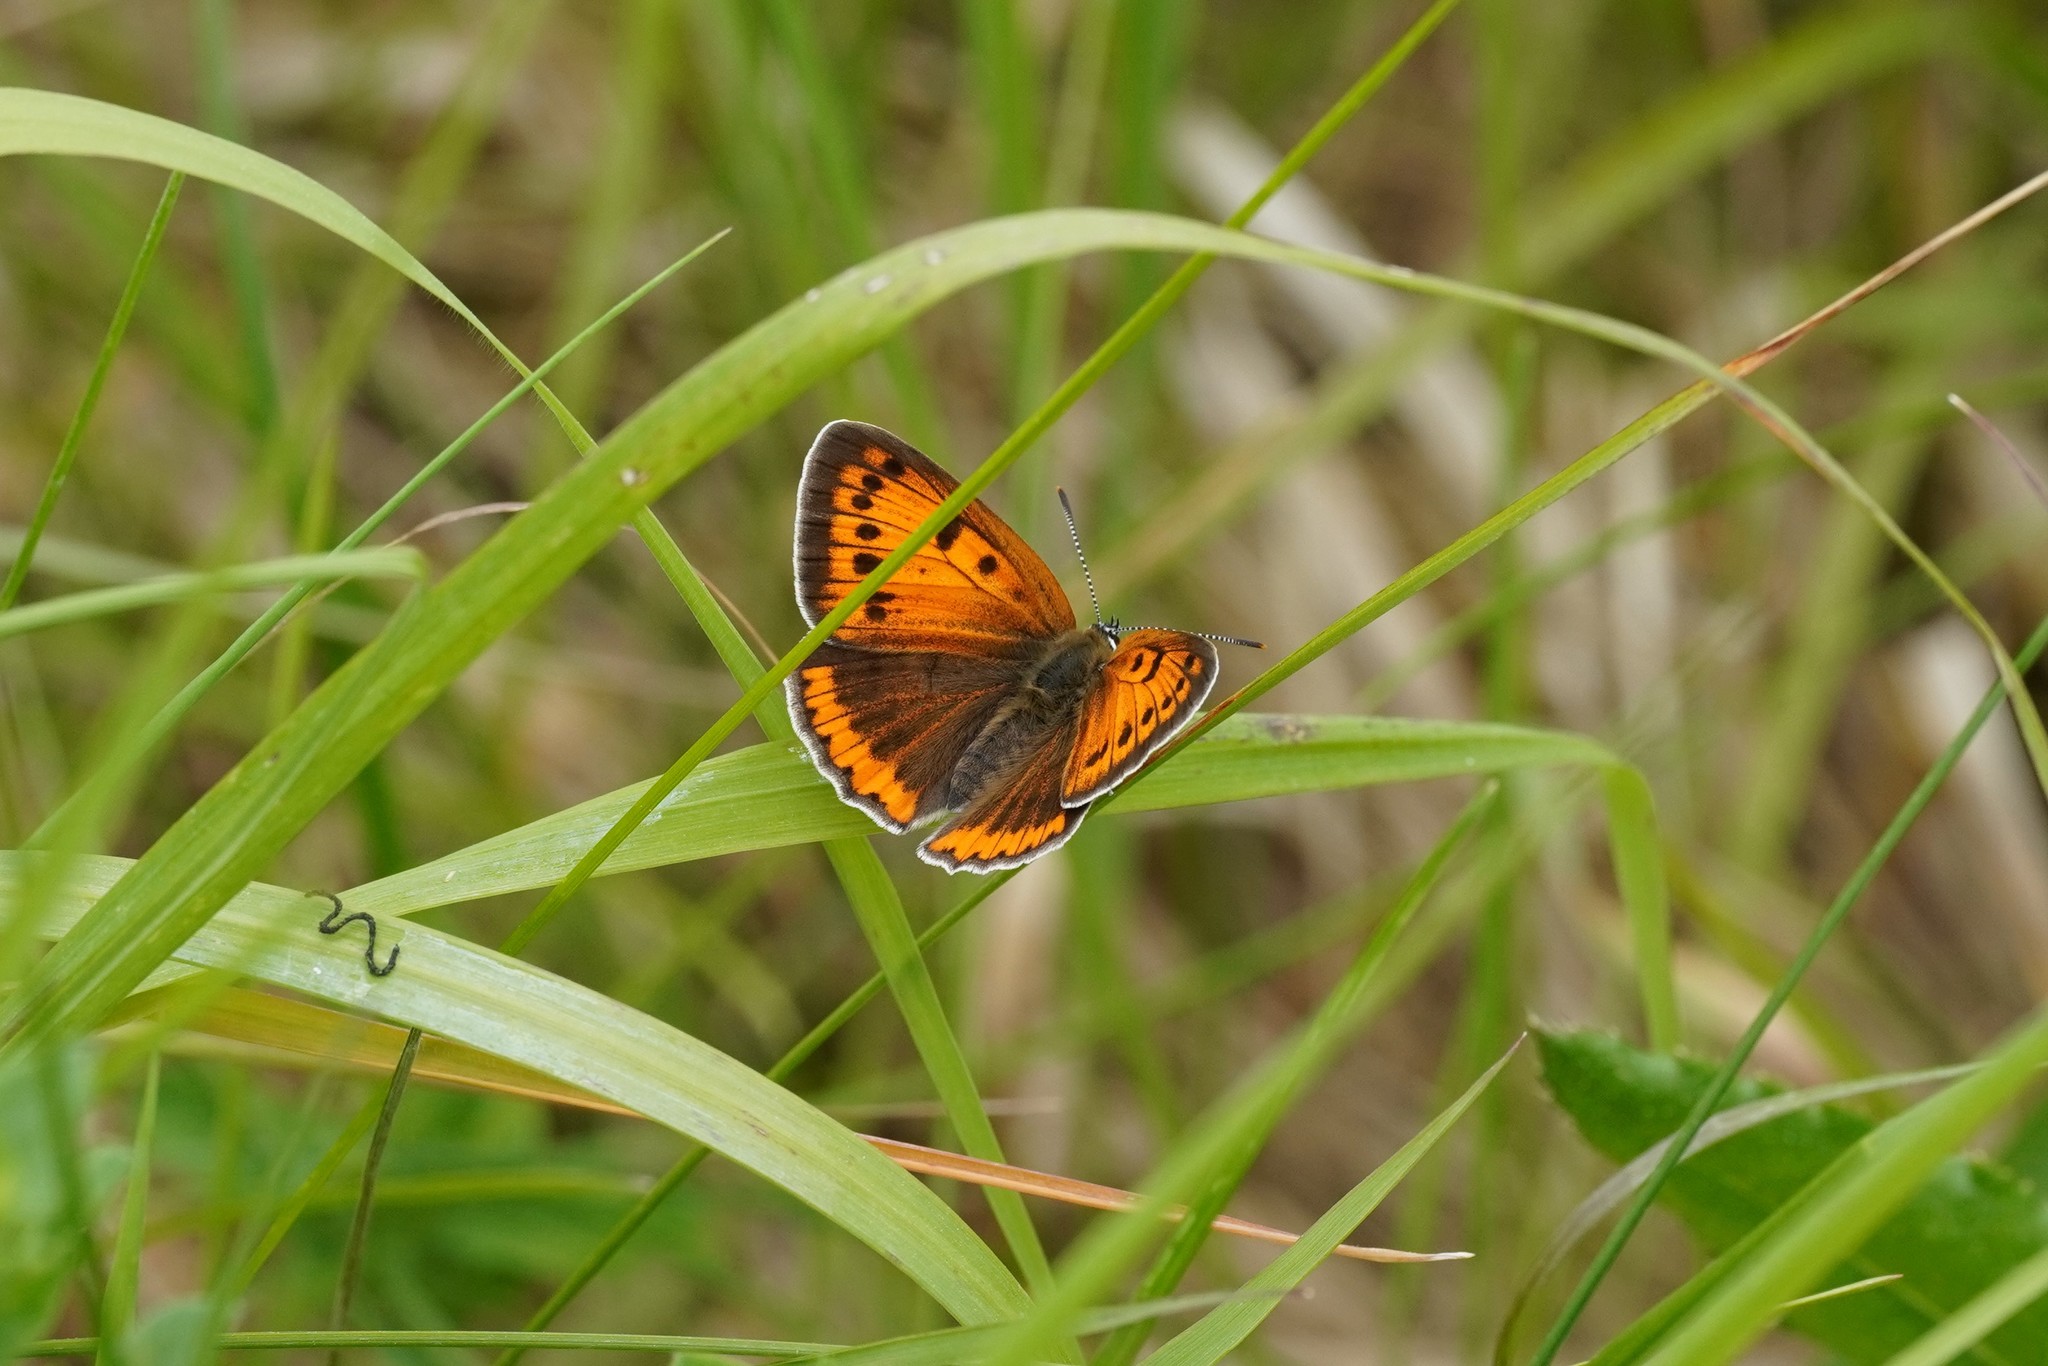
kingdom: Animalia
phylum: Arthropoda
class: Insecta
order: Lepidoptera
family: Lycaenidae
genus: Lycaena
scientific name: Lycaena dispar
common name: Large copper
